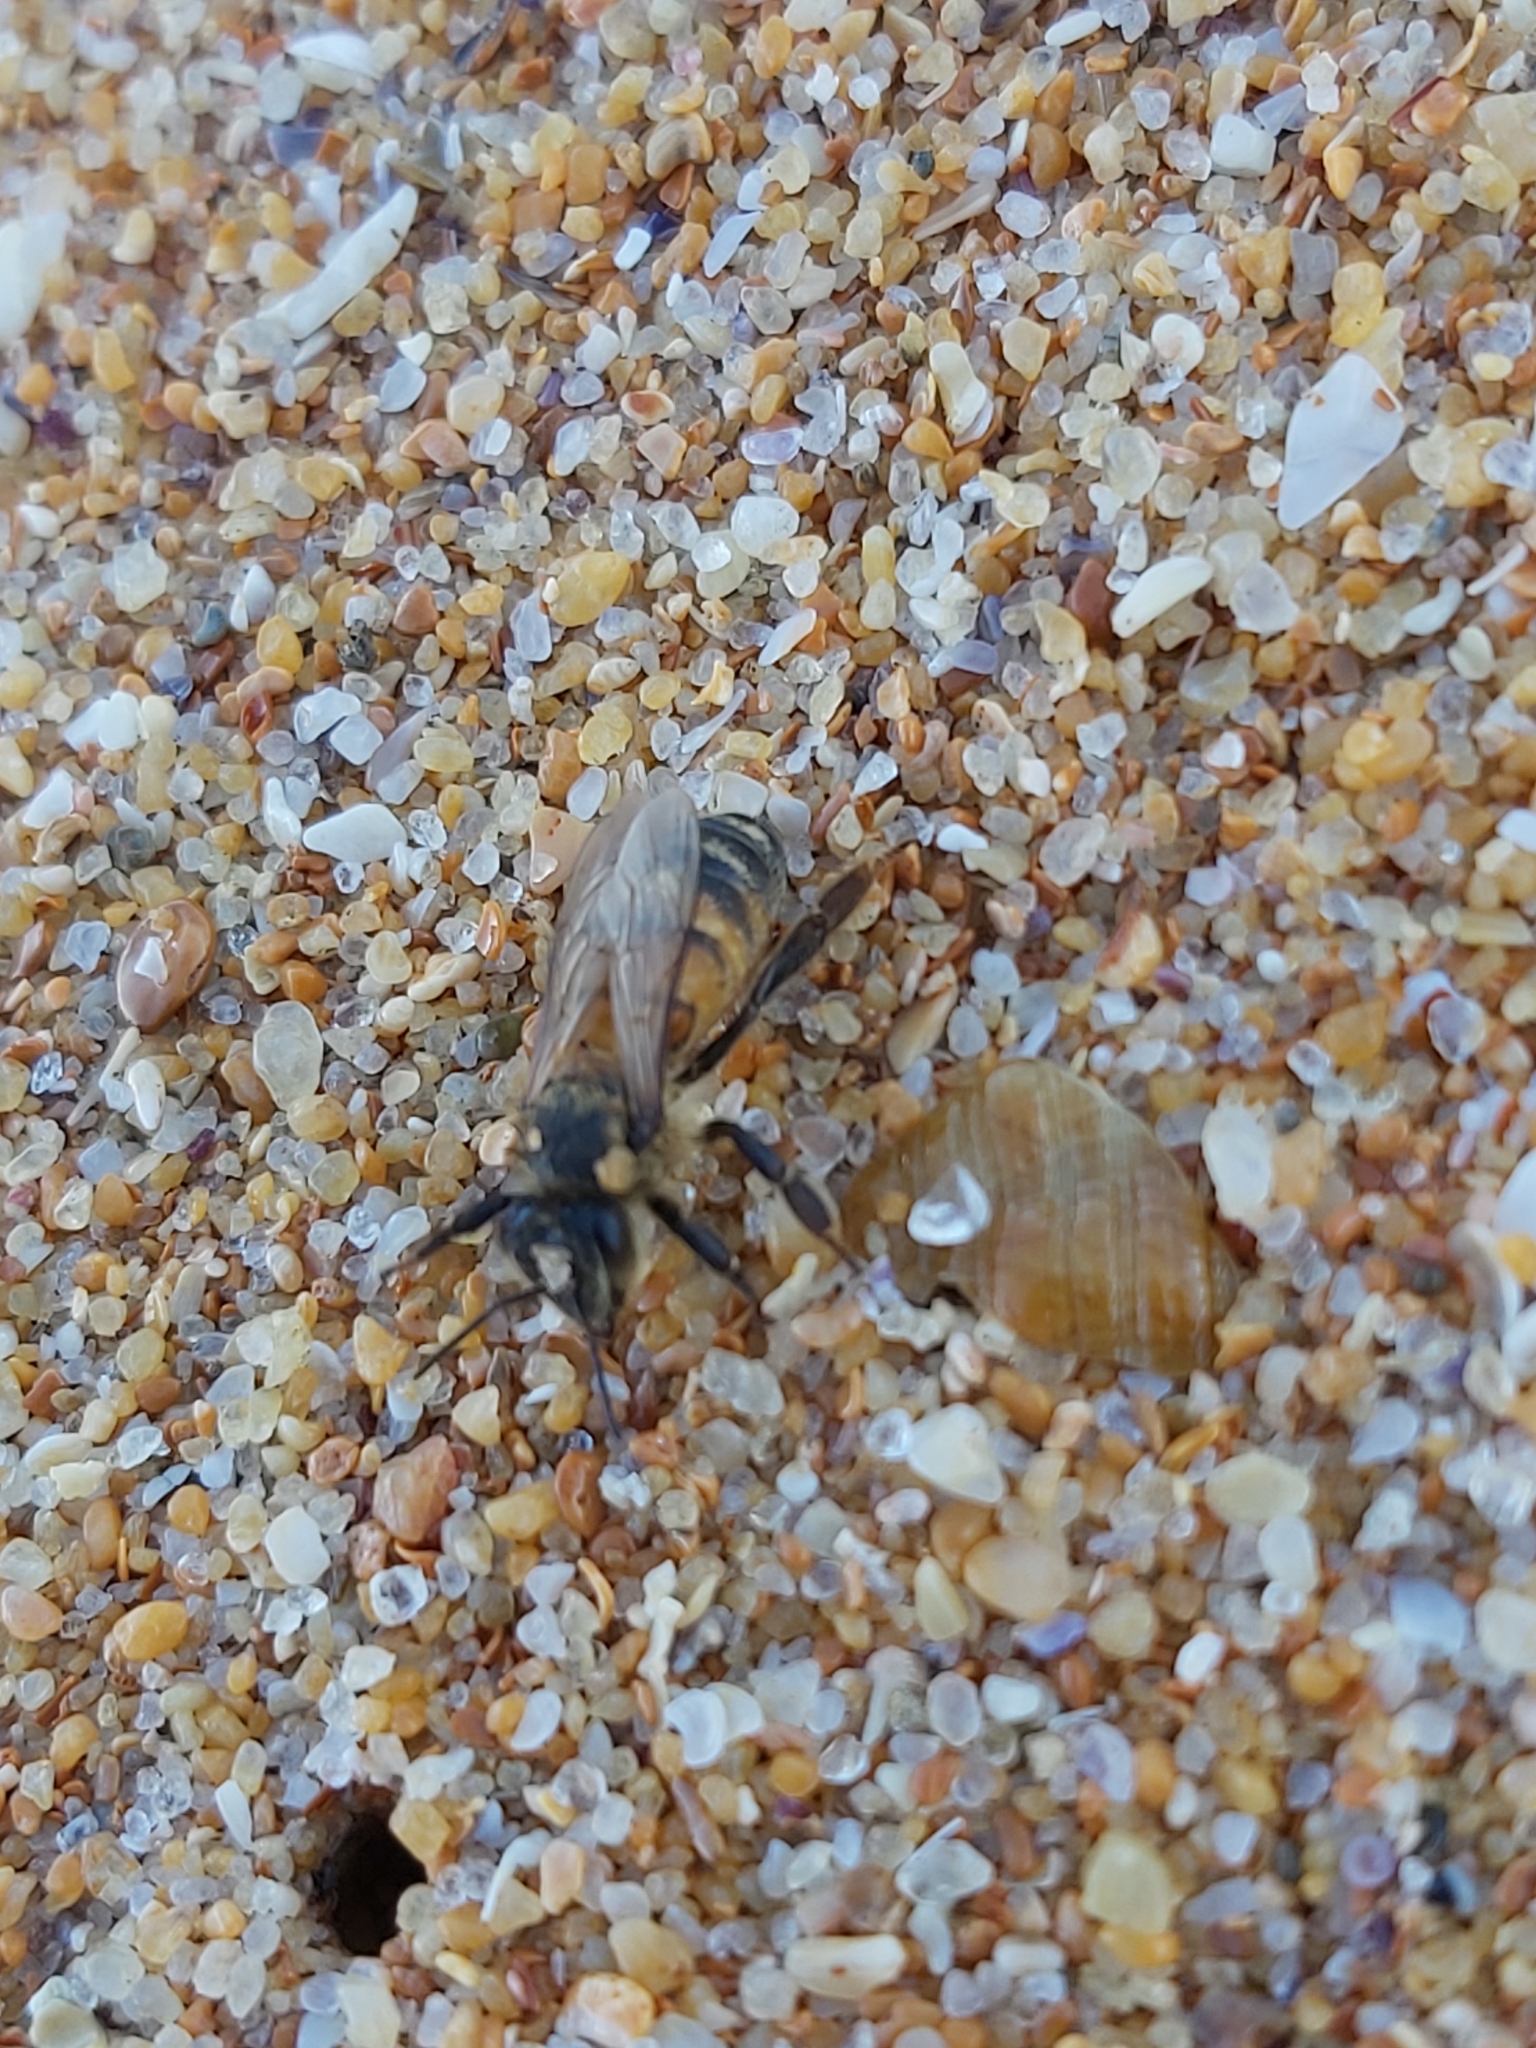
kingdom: Animalia
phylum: Arthropoda
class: Insecta
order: Hymenoptera
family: Apidae
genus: Apis
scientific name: Apis mellifera
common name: Honey bee
